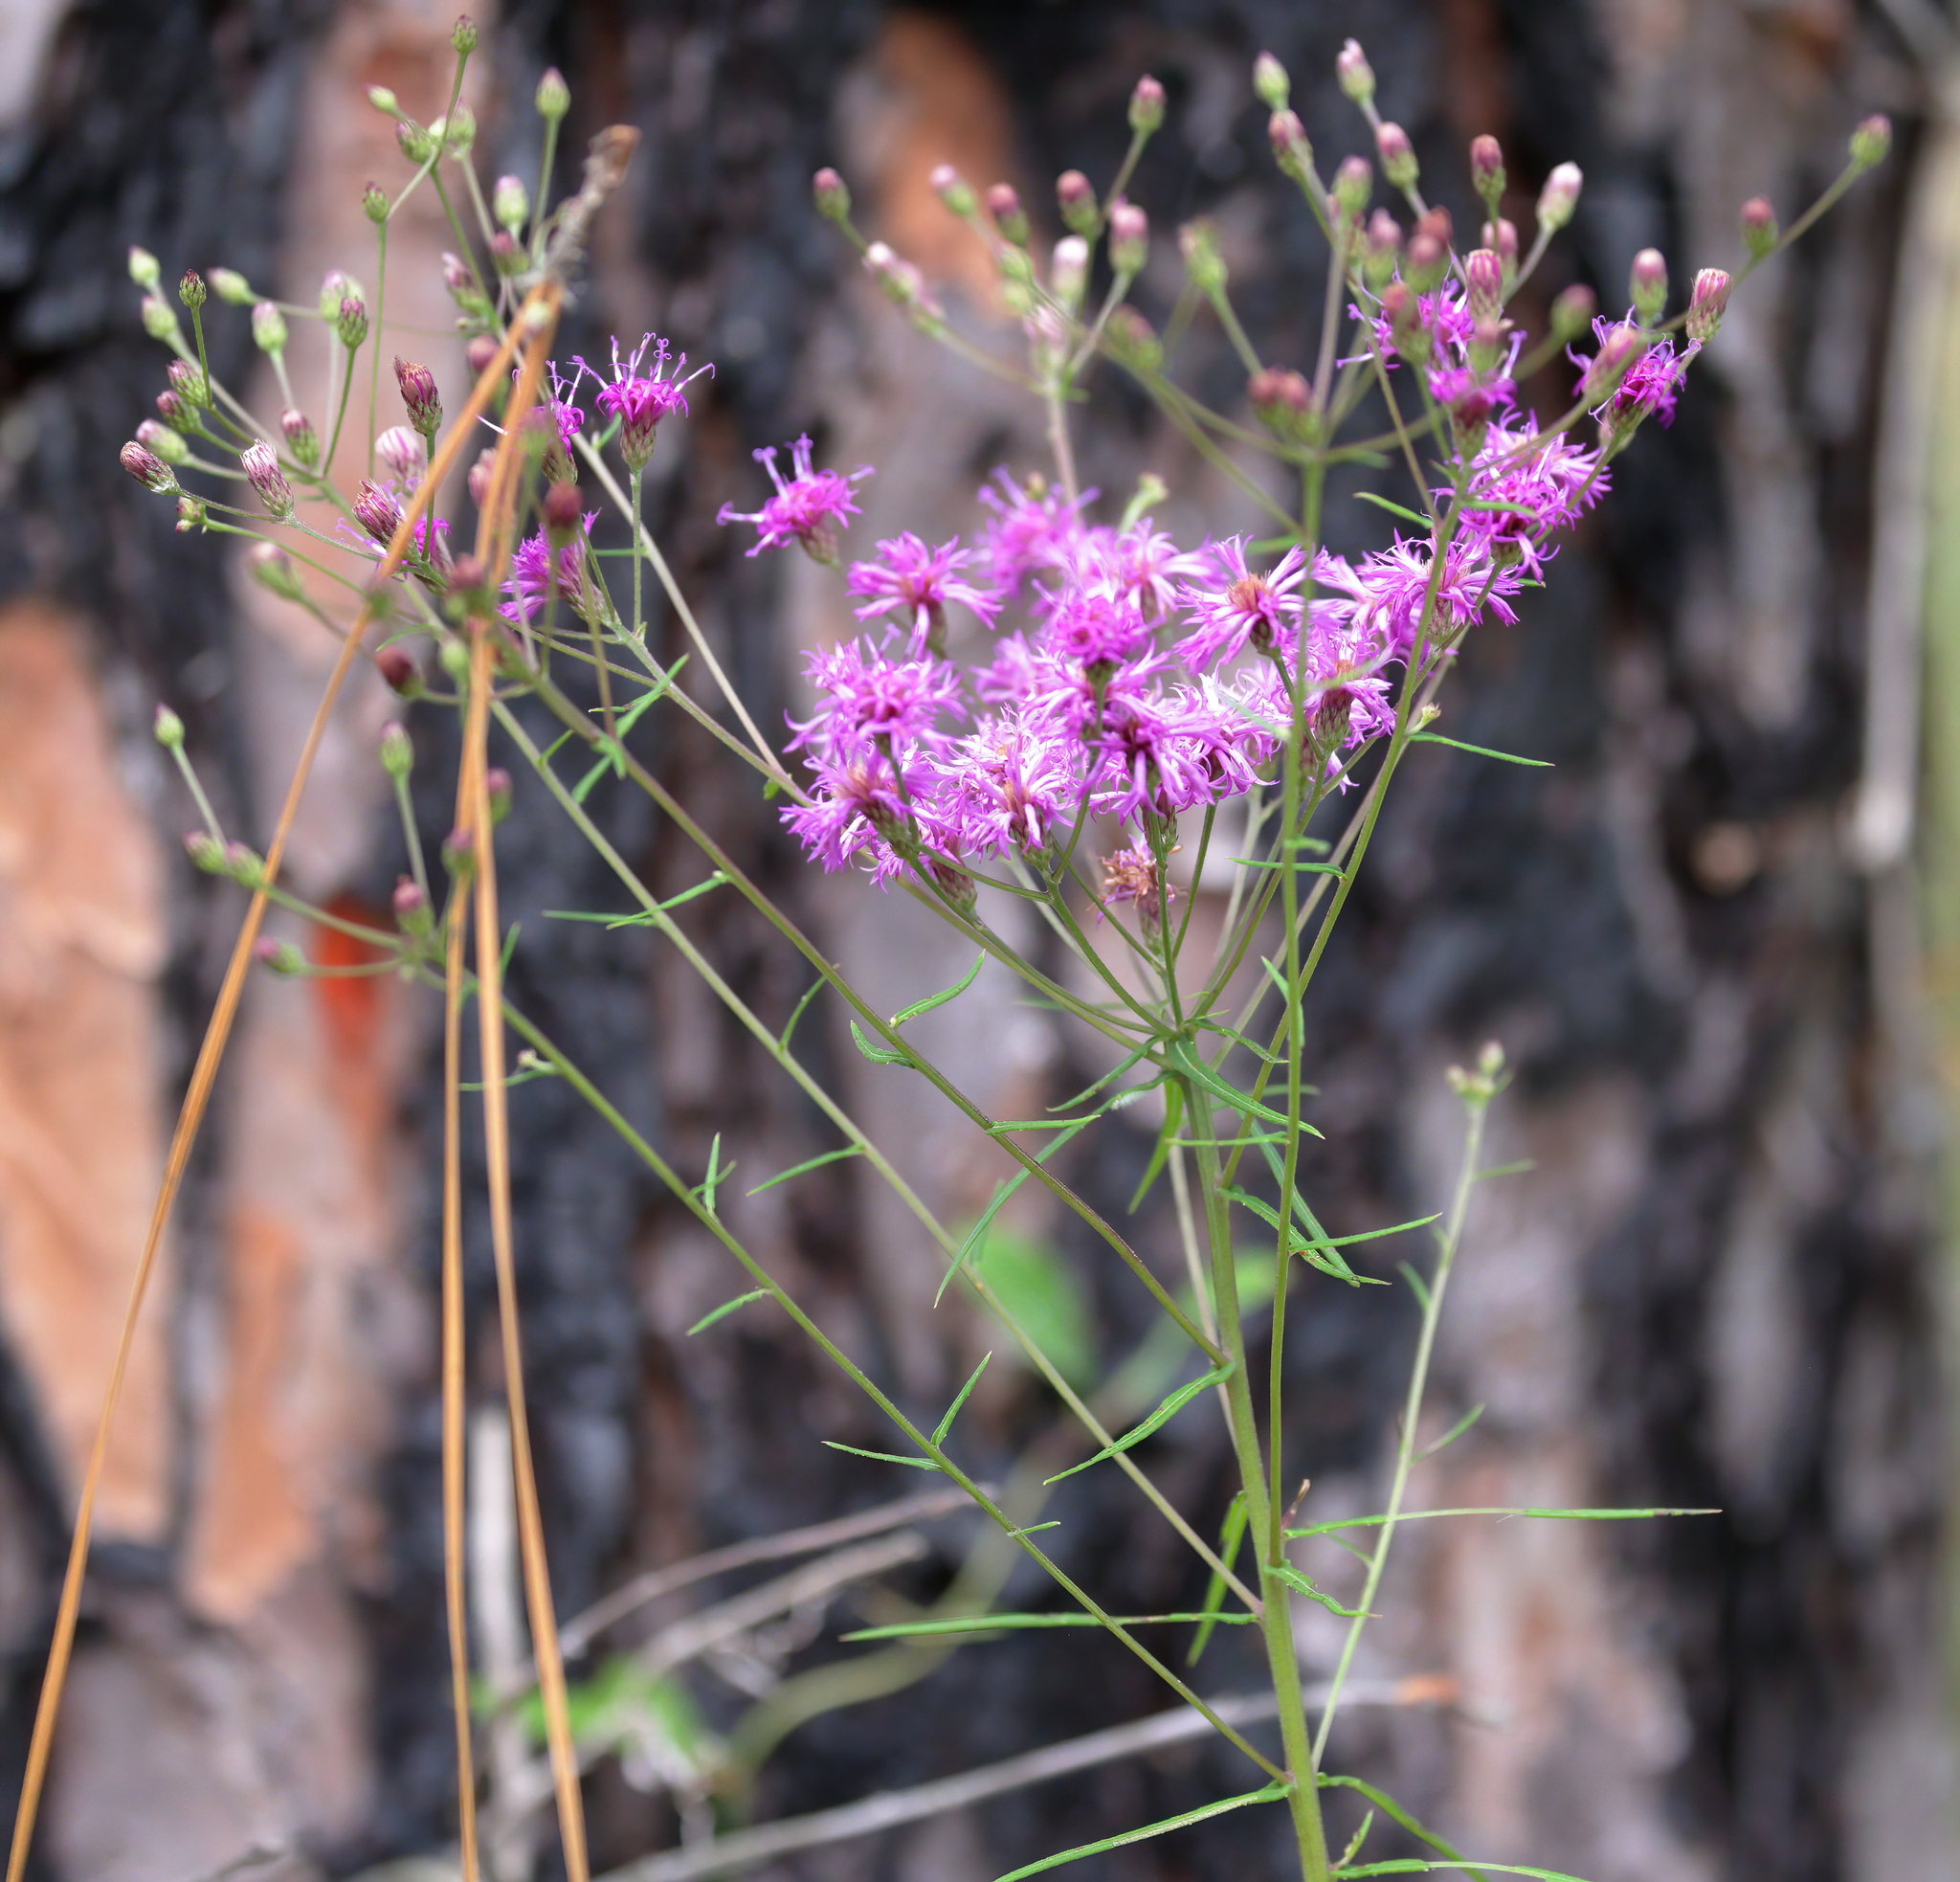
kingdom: Plantae
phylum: Tracheophyta
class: Magnoliopsida
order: Asterales
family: Asteraceae
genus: Vernonia
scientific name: Vernonia angustifolia
